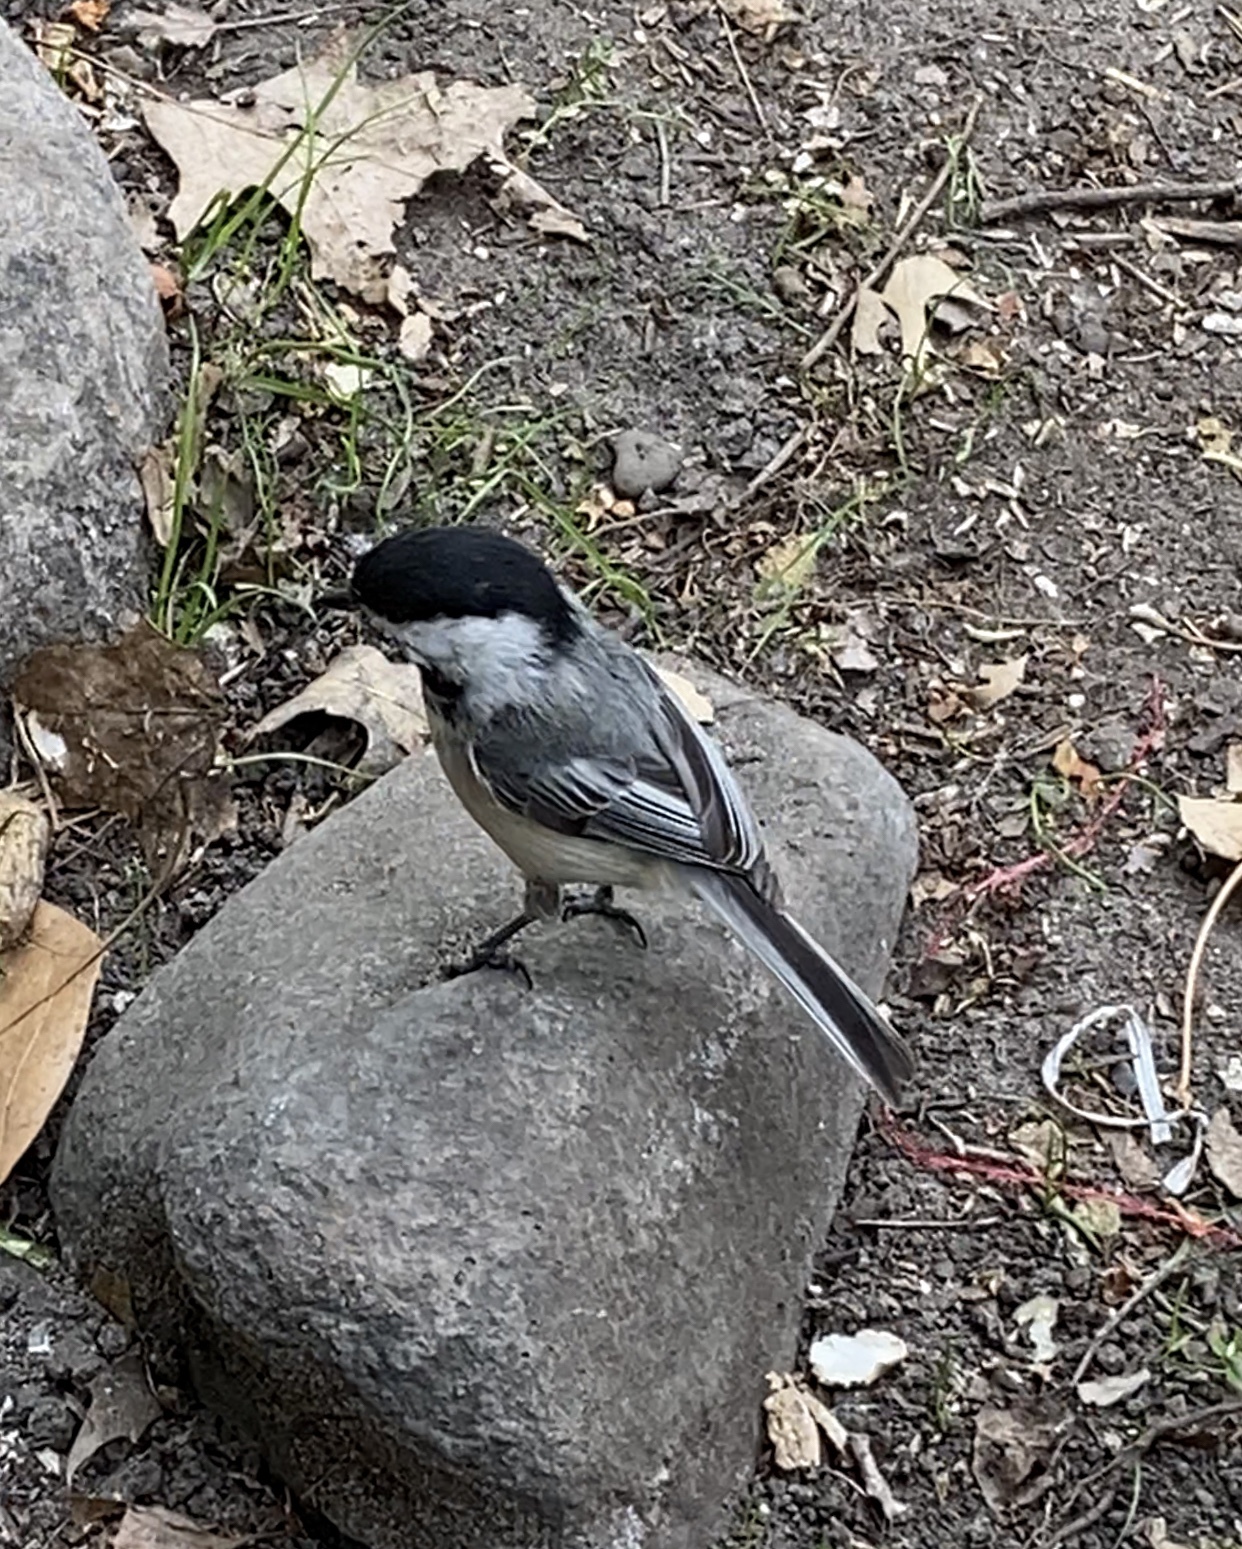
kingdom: Animalia
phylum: Chordata
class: Aves
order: Passeriformes
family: Paridae
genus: Poecile
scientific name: Poecile atricapillus
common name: Black-capped chickadee
